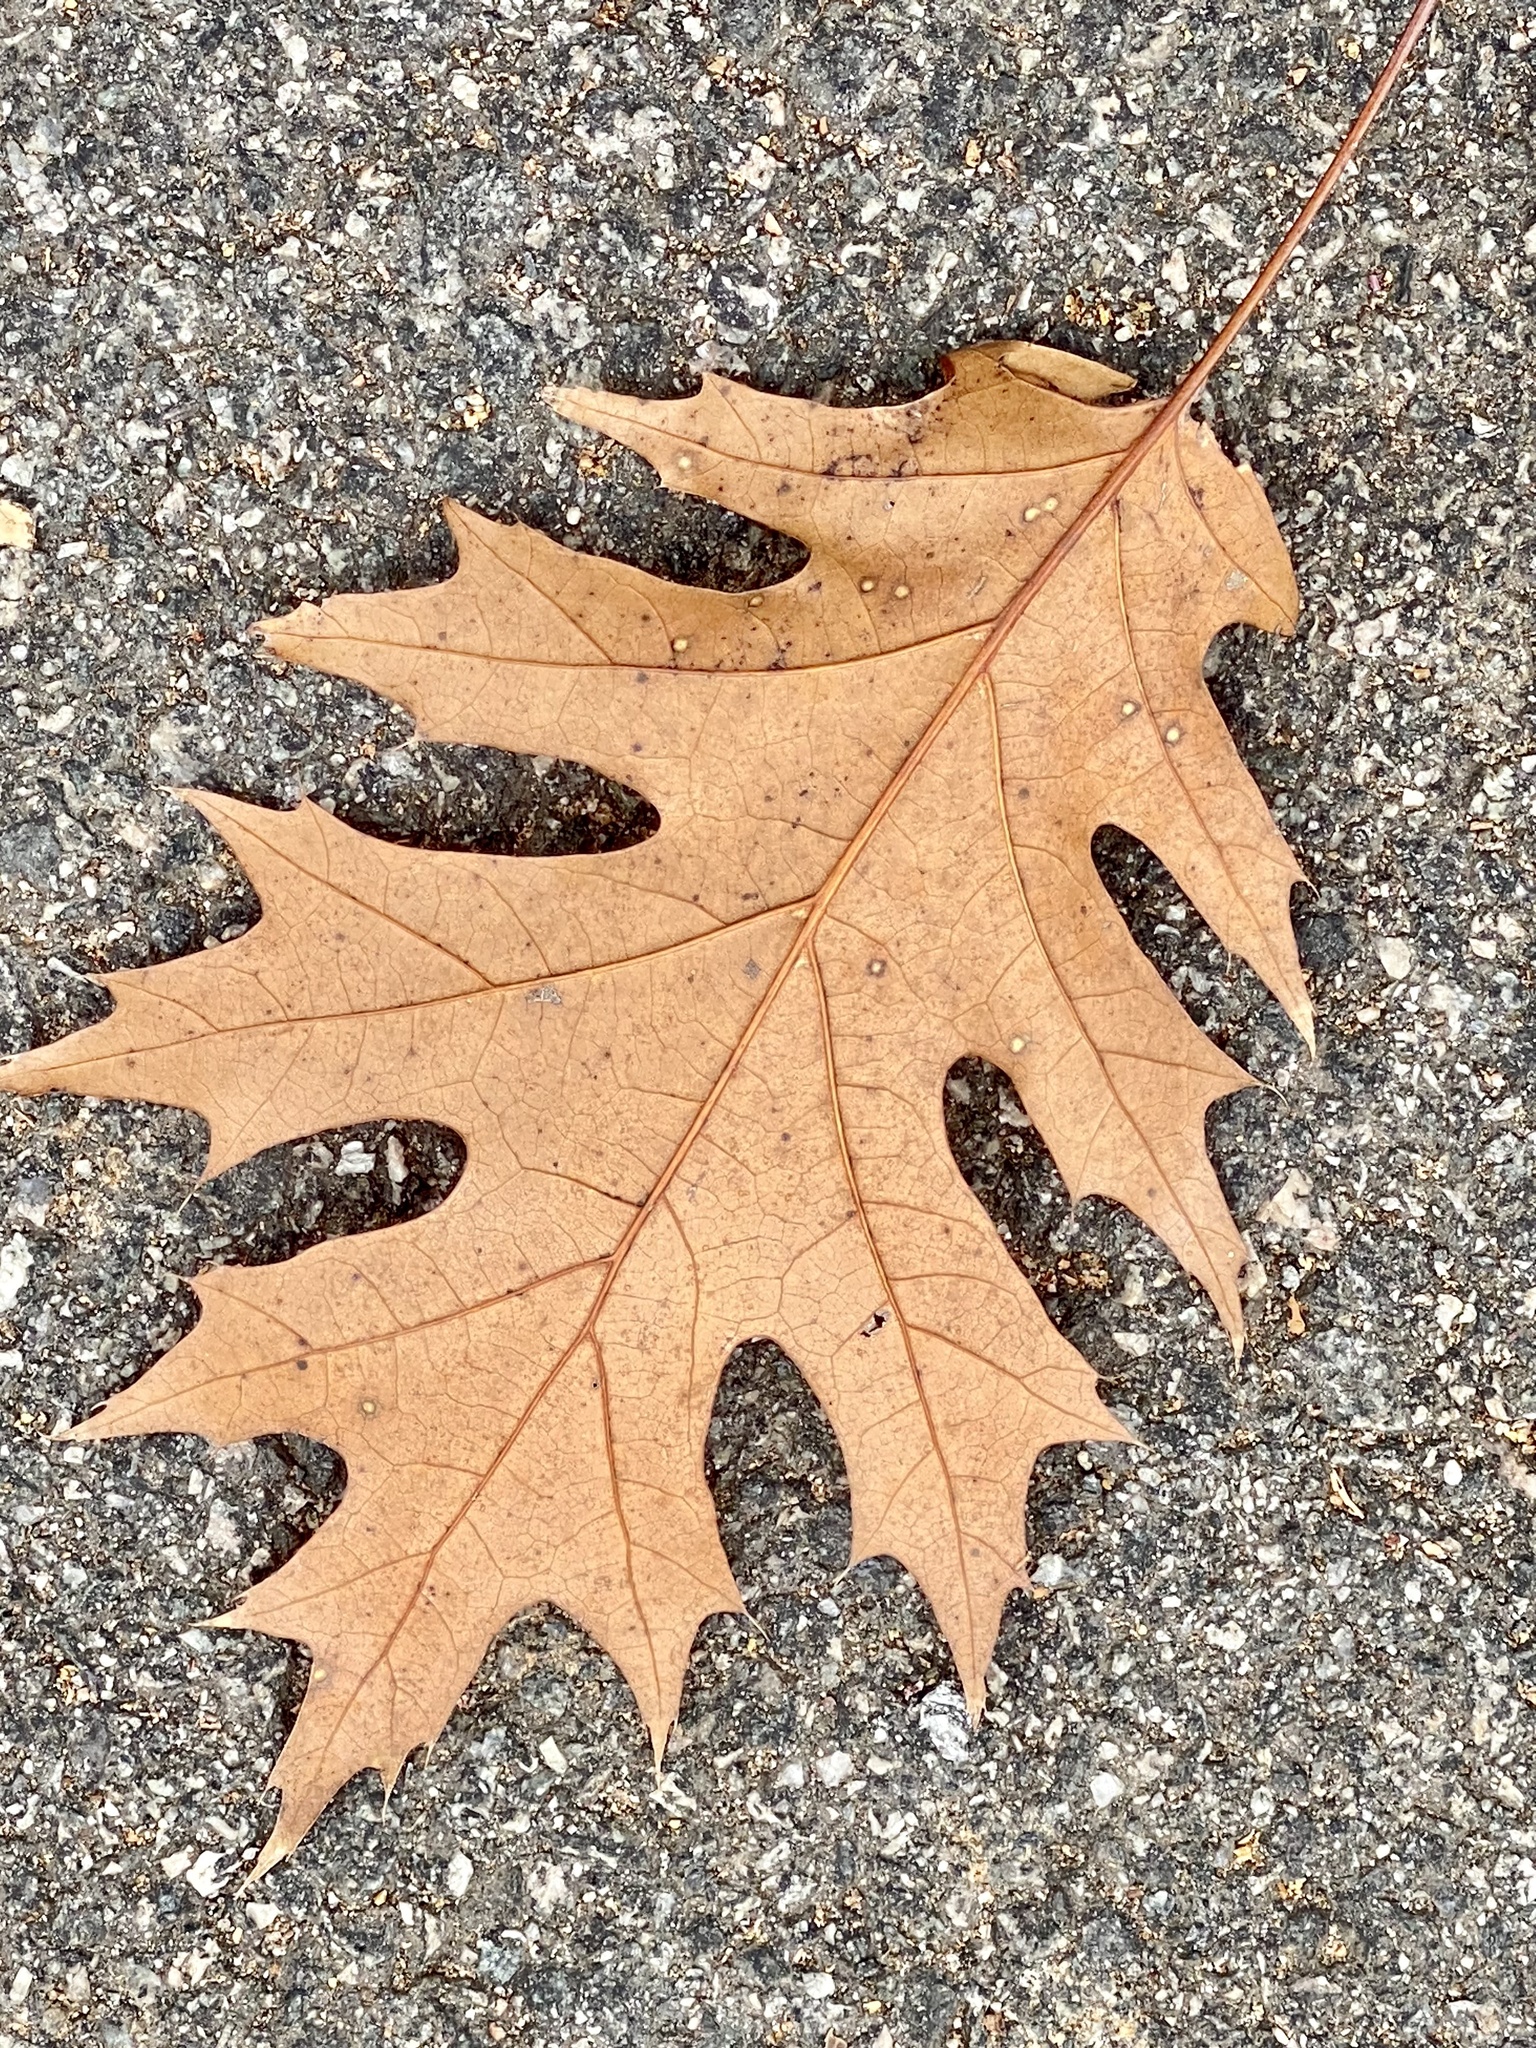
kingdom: Plantae
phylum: Tracheophyta
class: Magnoliopsida
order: Fagales
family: Fagaceae
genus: Quercus
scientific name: Quercus rubra
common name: Red oak
